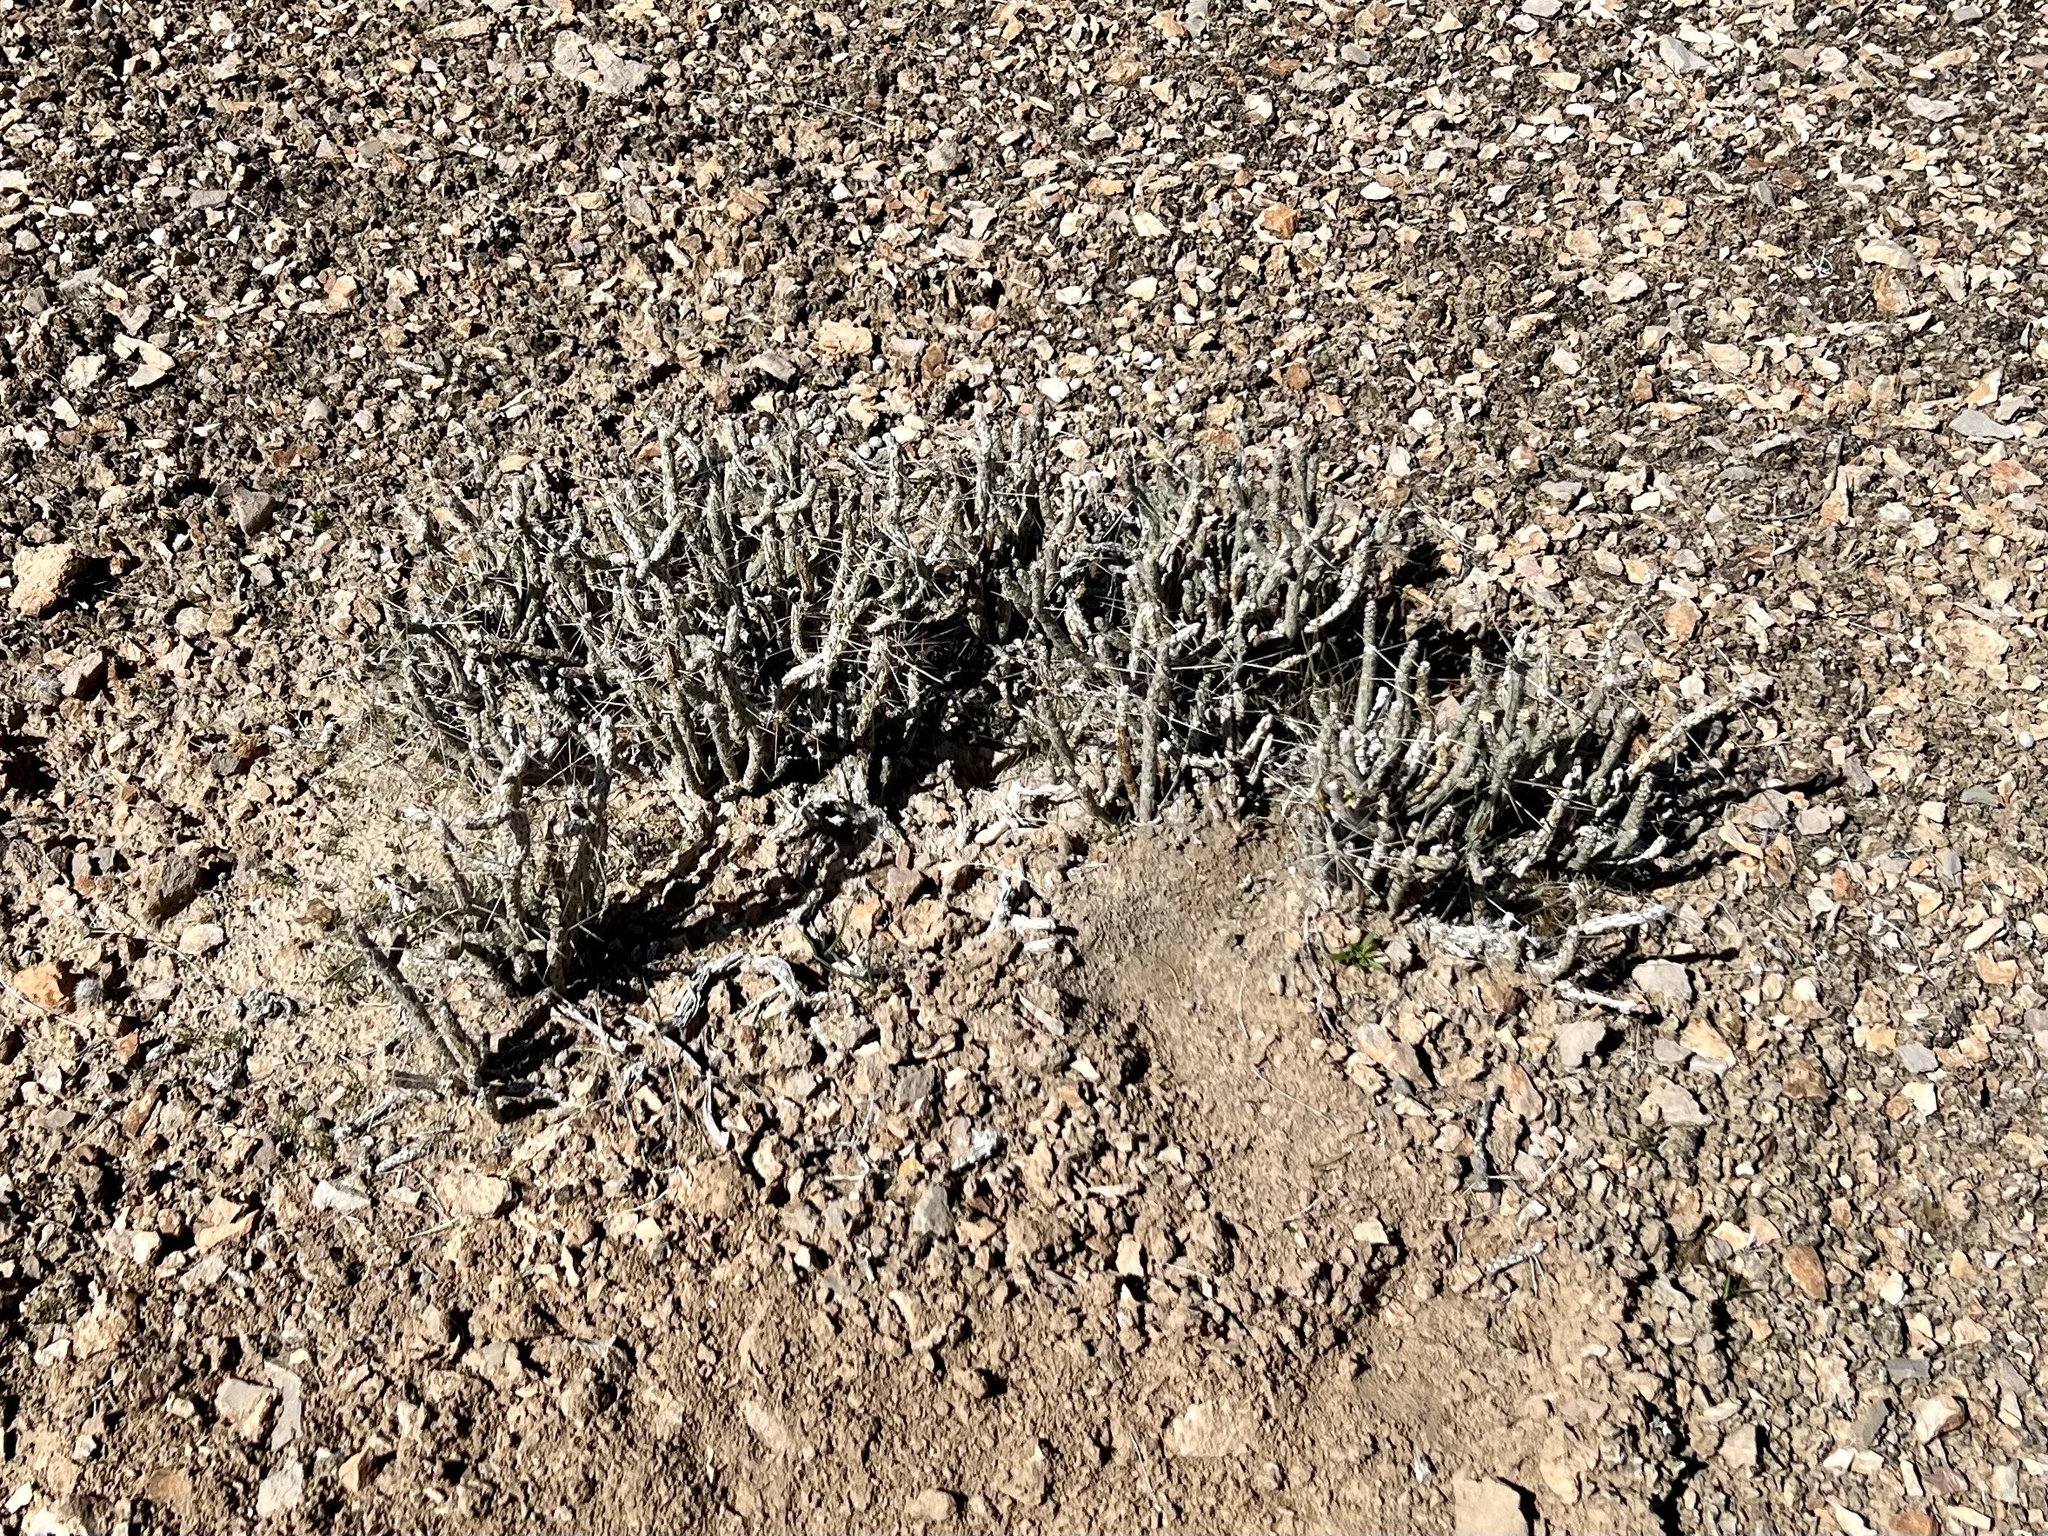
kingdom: Plantae
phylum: Tracheophyta
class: Magnoliopsida
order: Caryophyllales
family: Cactaceae
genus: Cylindropuntia
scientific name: Cylindropuntia ramosissima
